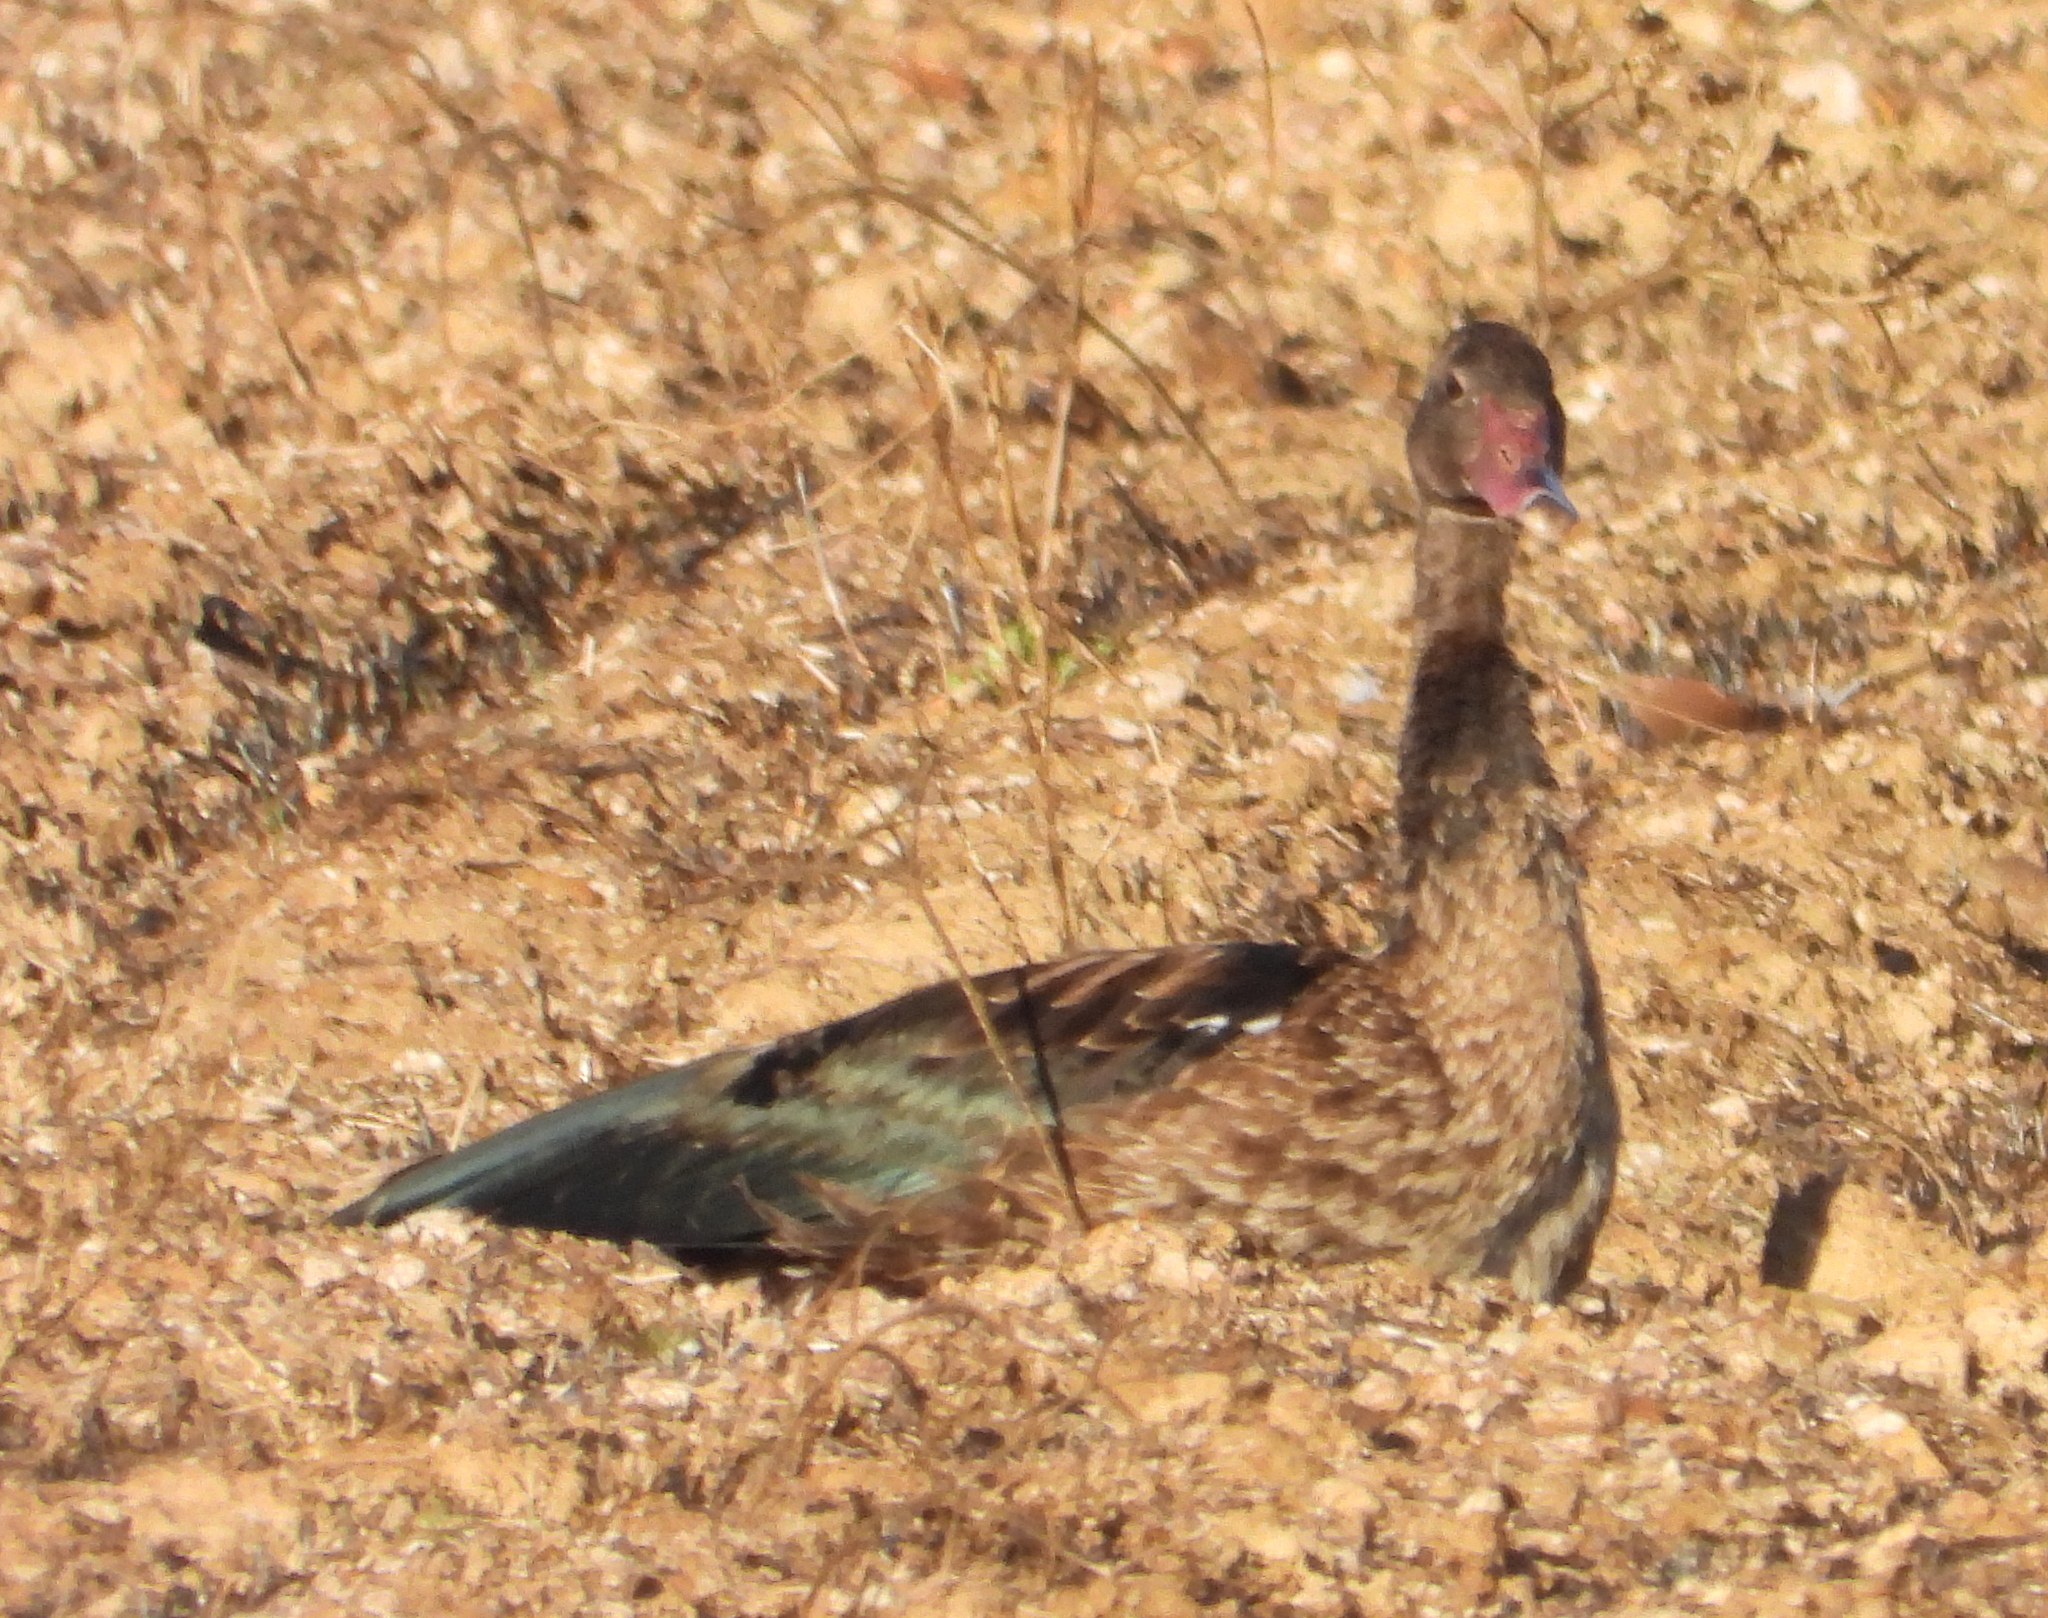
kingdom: Animalia
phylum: Chordata
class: Aves
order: Anseriformes
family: Anatidae
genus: Plectropterus
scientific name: Plectropterus gambensis
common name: Spur-winged goose
